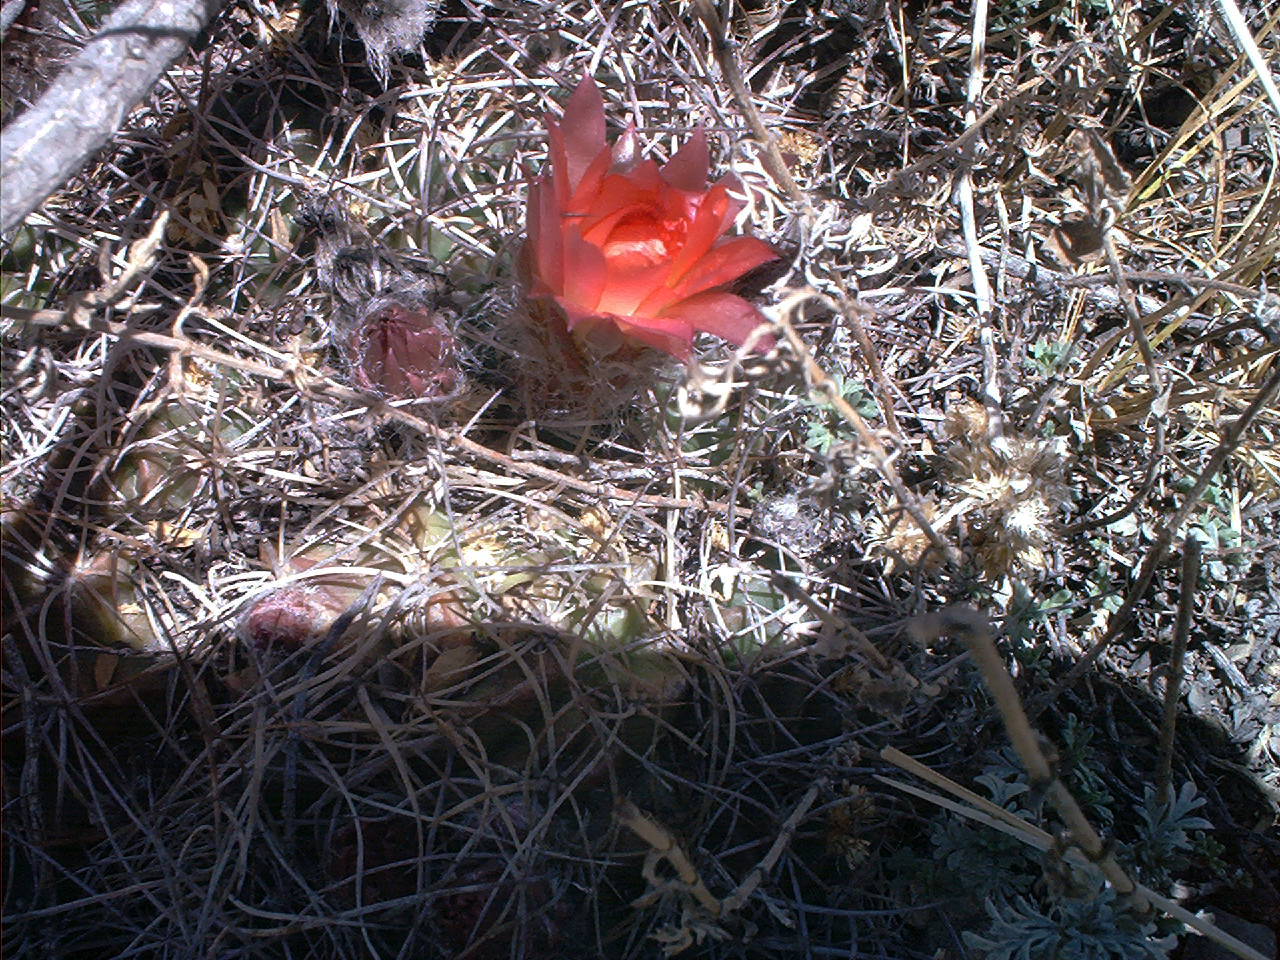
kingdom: Plantae
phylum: Tracheophyta
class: Magnoliopsida
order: Caryophyllales
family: Cactaceae
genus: Lobivia
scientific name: Lobivia pentlandii
